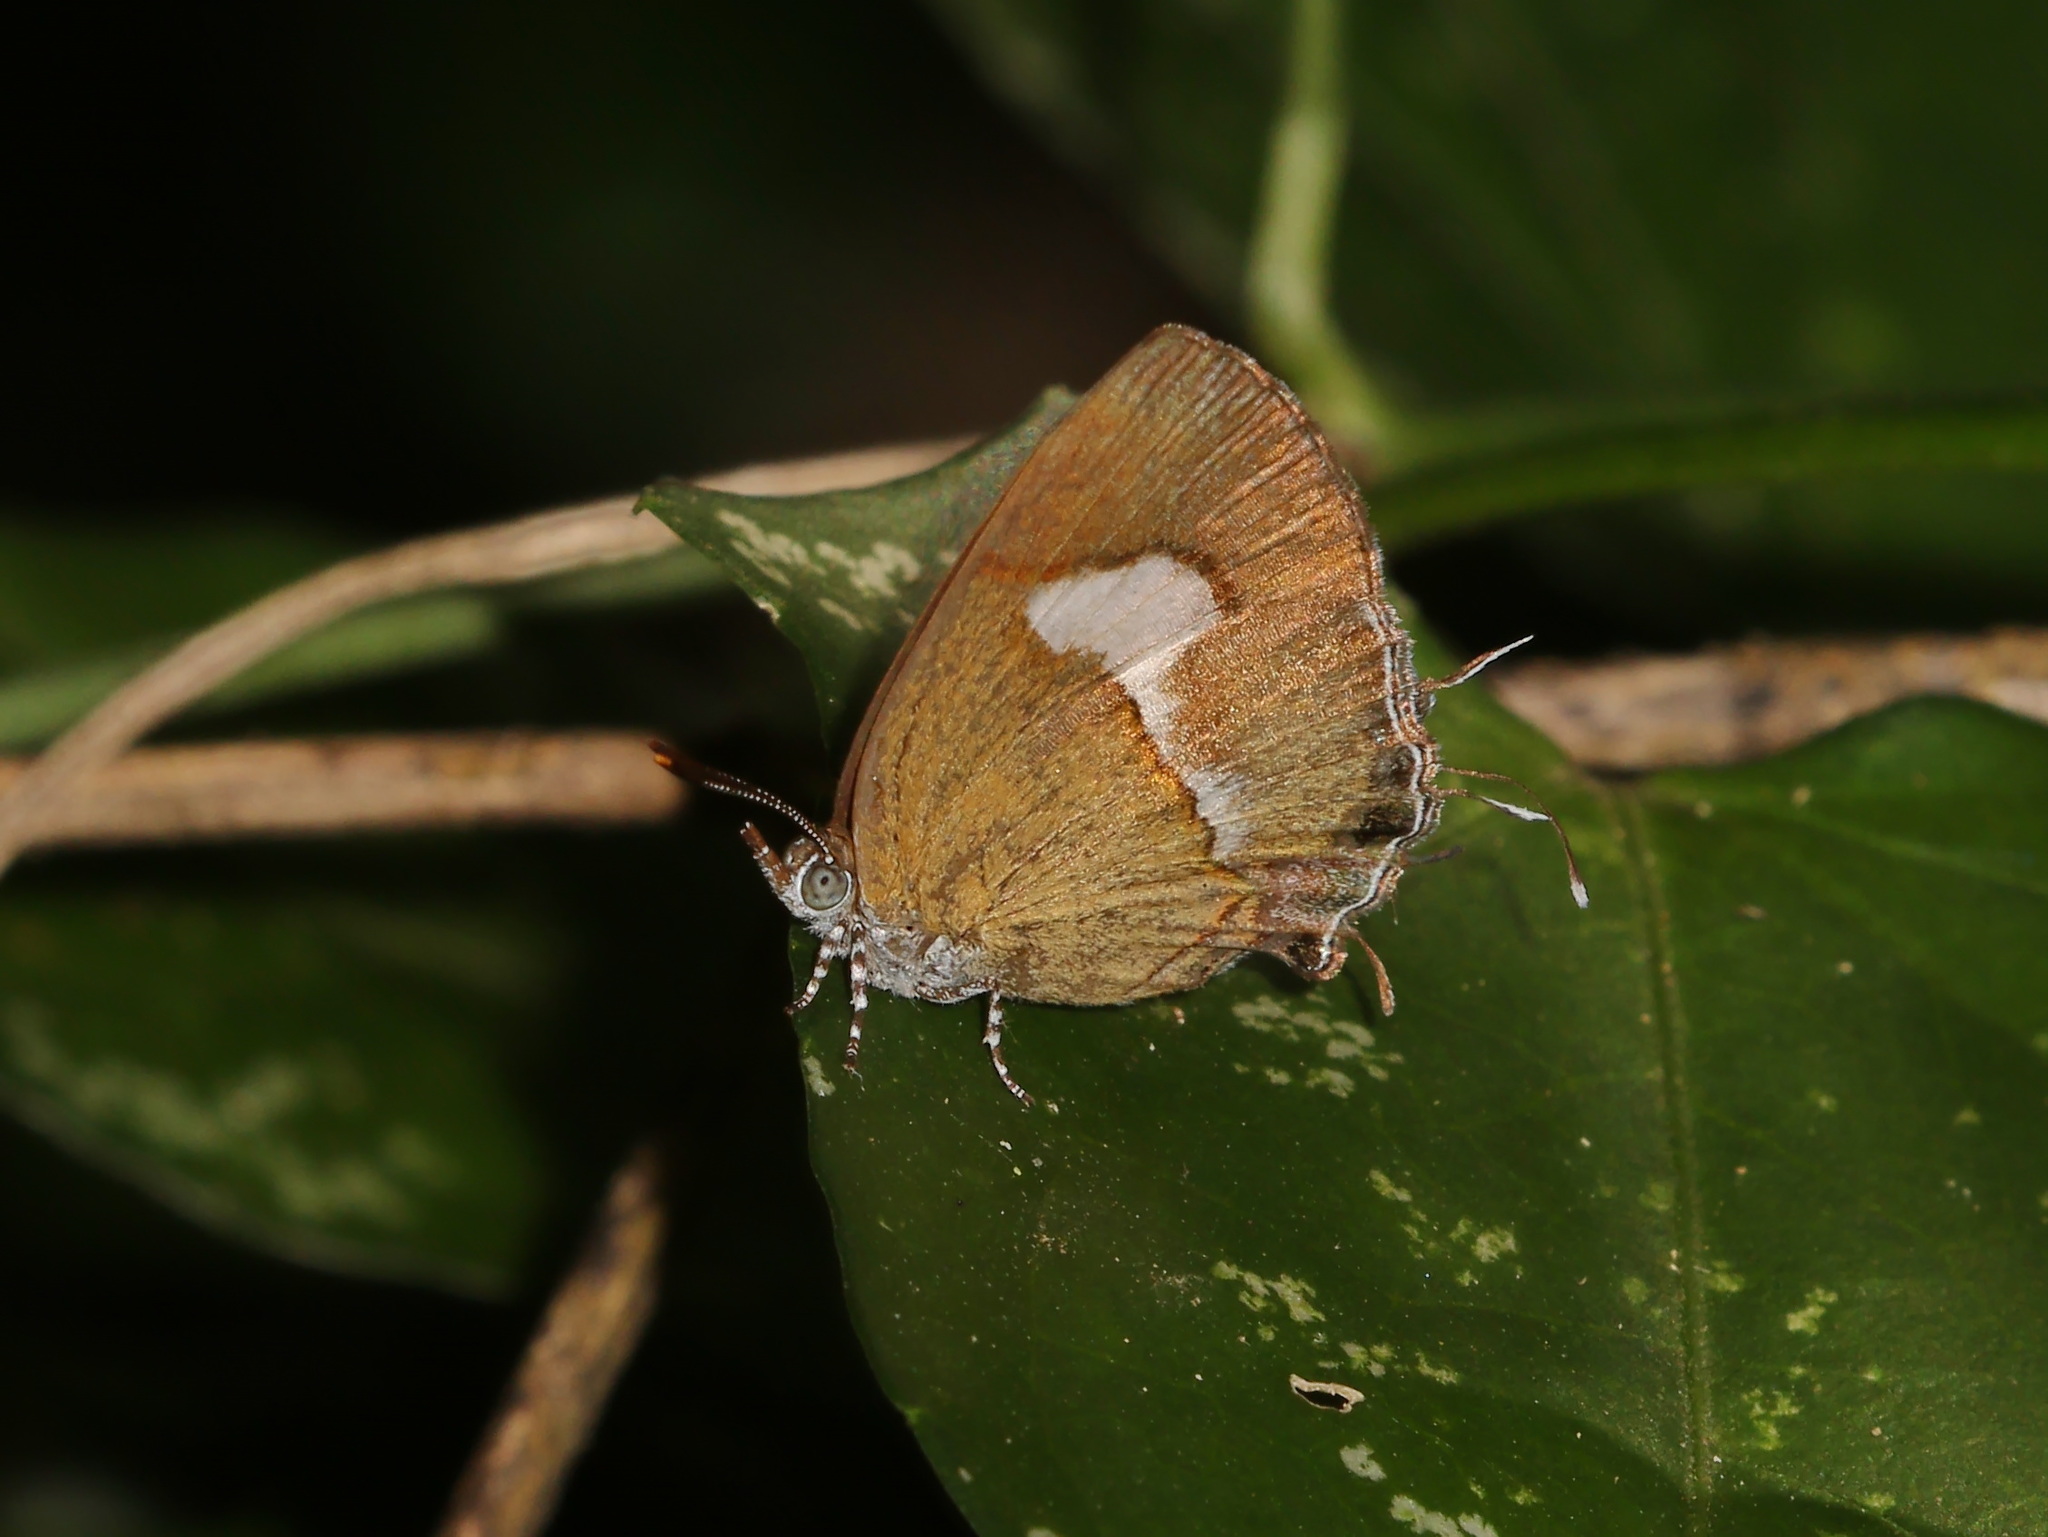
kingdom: Animalia
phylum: Arthropoda
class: Insecta
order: Lepidoptera
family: Lycaenidae
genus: Horaga
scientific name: Horaga onyx
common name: Common onyx
